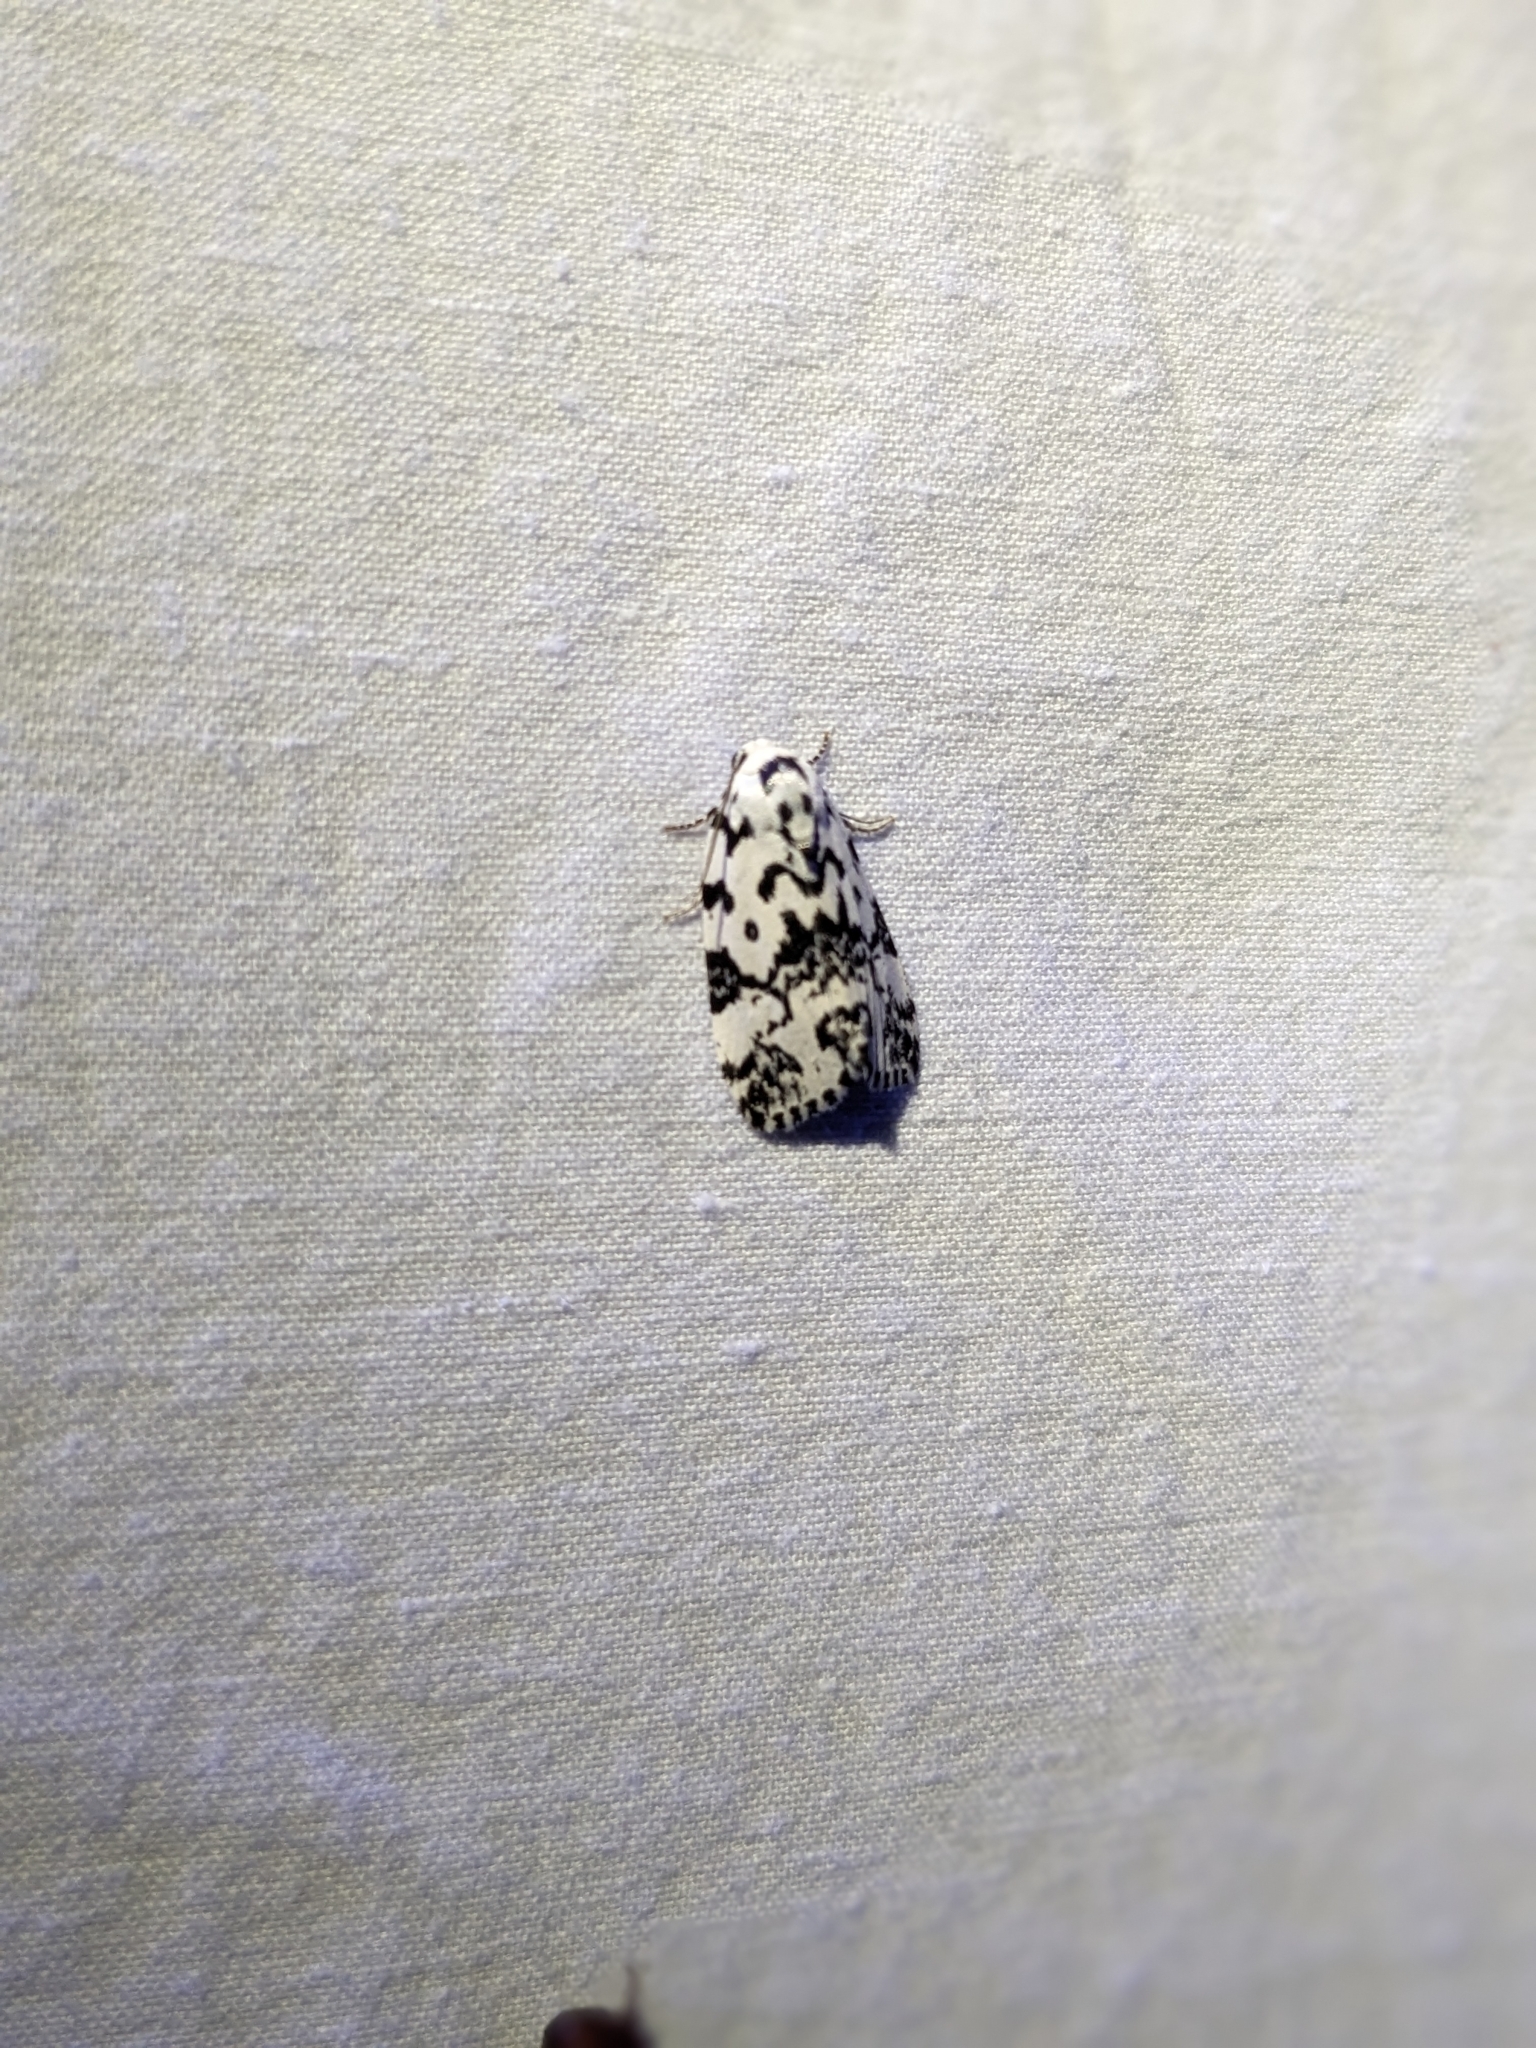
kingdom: Animalia
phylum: Arthropoda
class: Insecta
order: Lepidoptera
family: Noctuidae
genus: Polygrammate
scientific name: Polygrammate hebraeicum
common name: Hebrew moth
